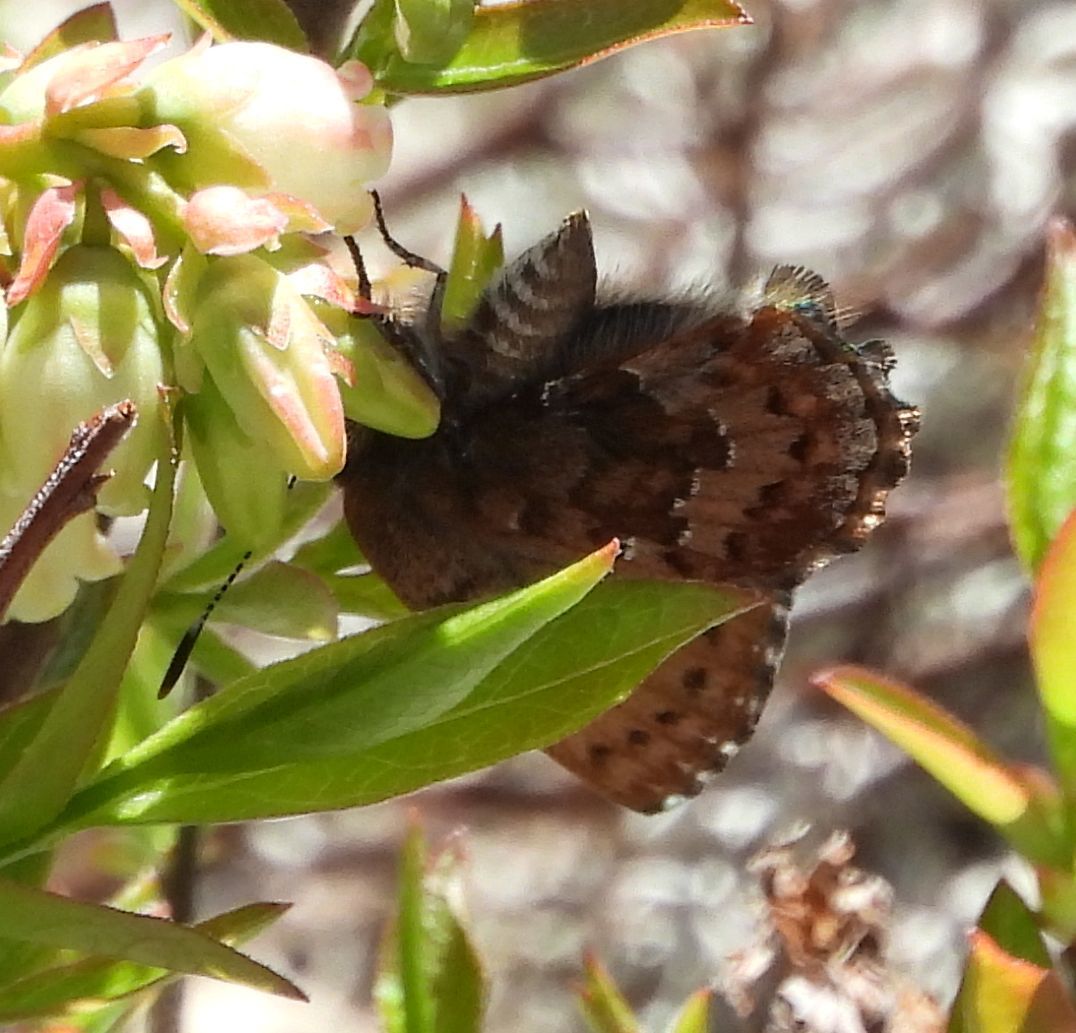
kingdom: Animalia
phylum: Arthropoda
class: Insecta
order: Lepidoptera
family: Lycaenidae
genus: Incisalia
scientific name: Incisalia niphon
